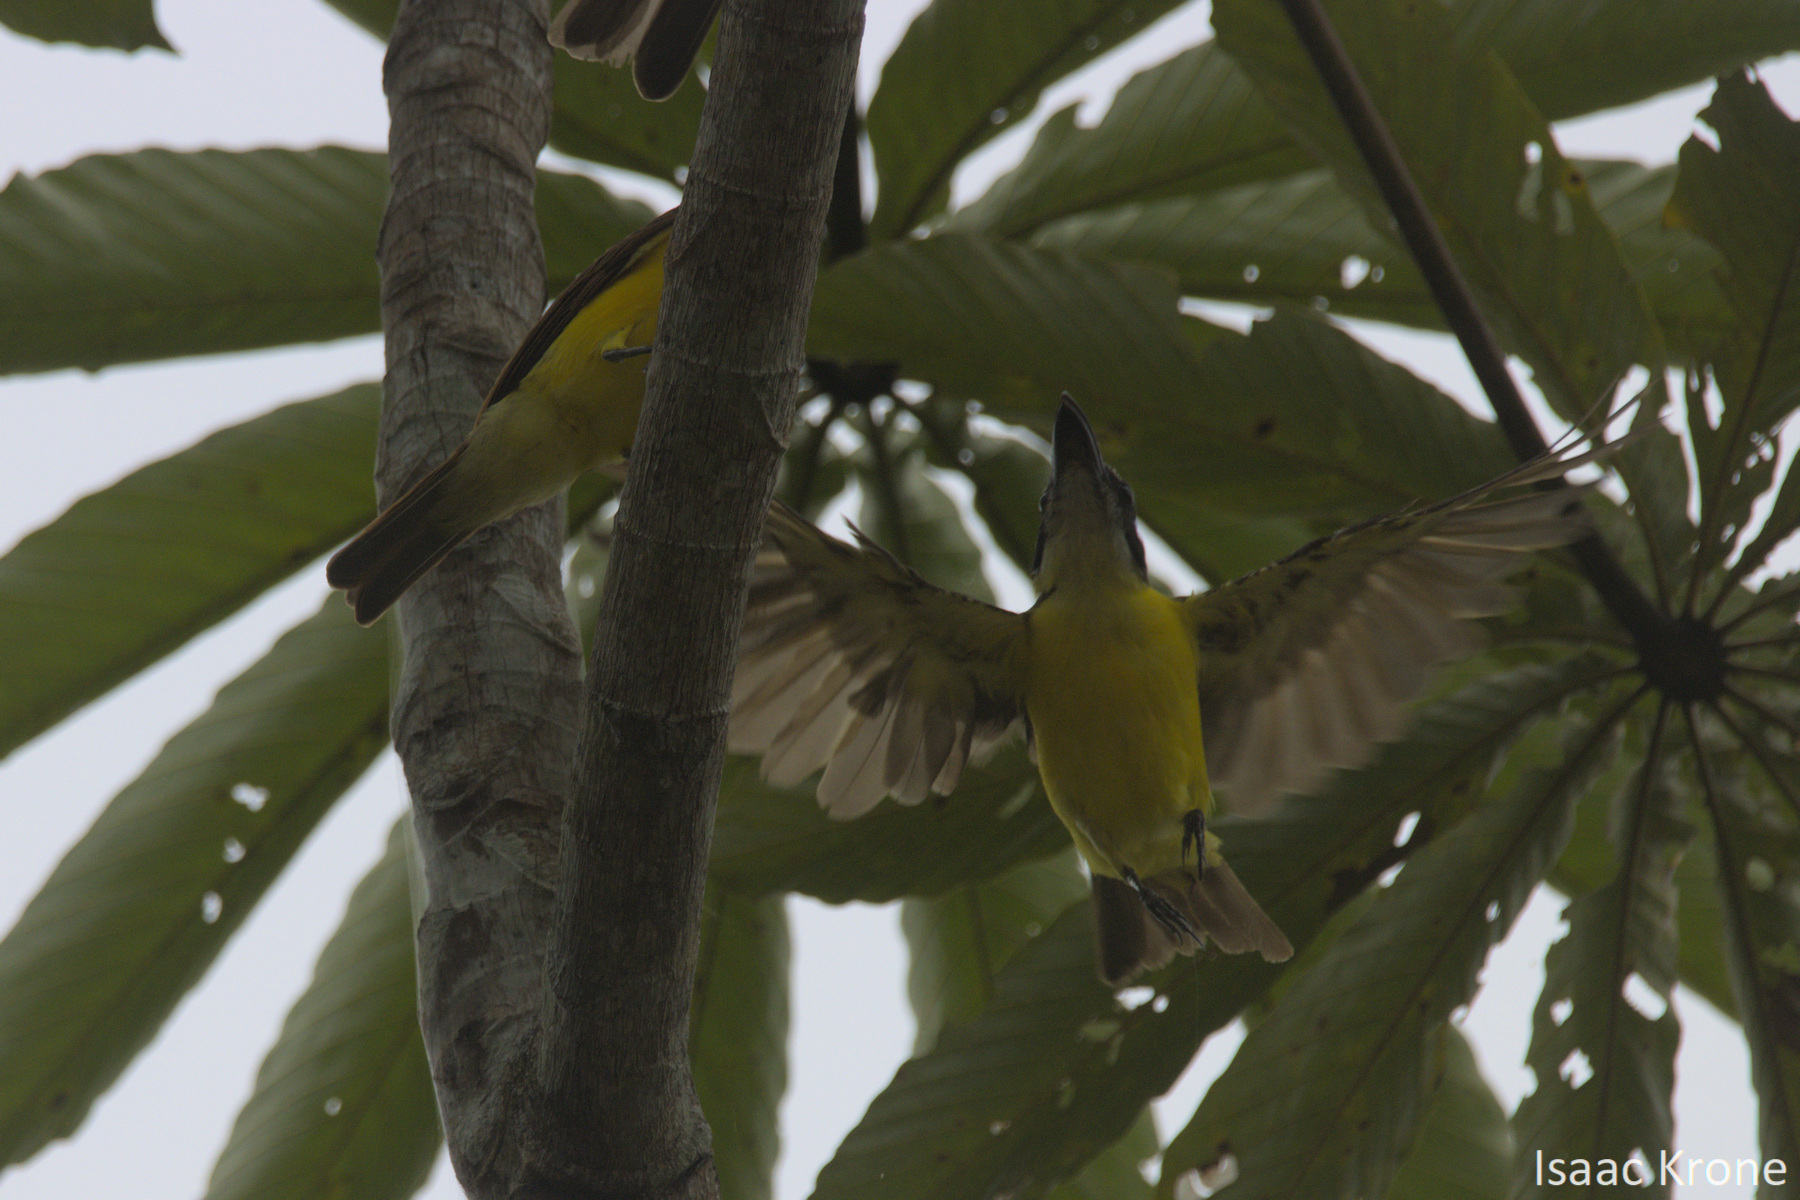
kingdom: Animalia
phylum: Chordata
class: Aves
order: Passeriformes
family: Tyrannidae
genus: Megarynchus
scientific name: Megarynchus pitangua
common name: Boat-billed flycatcher
